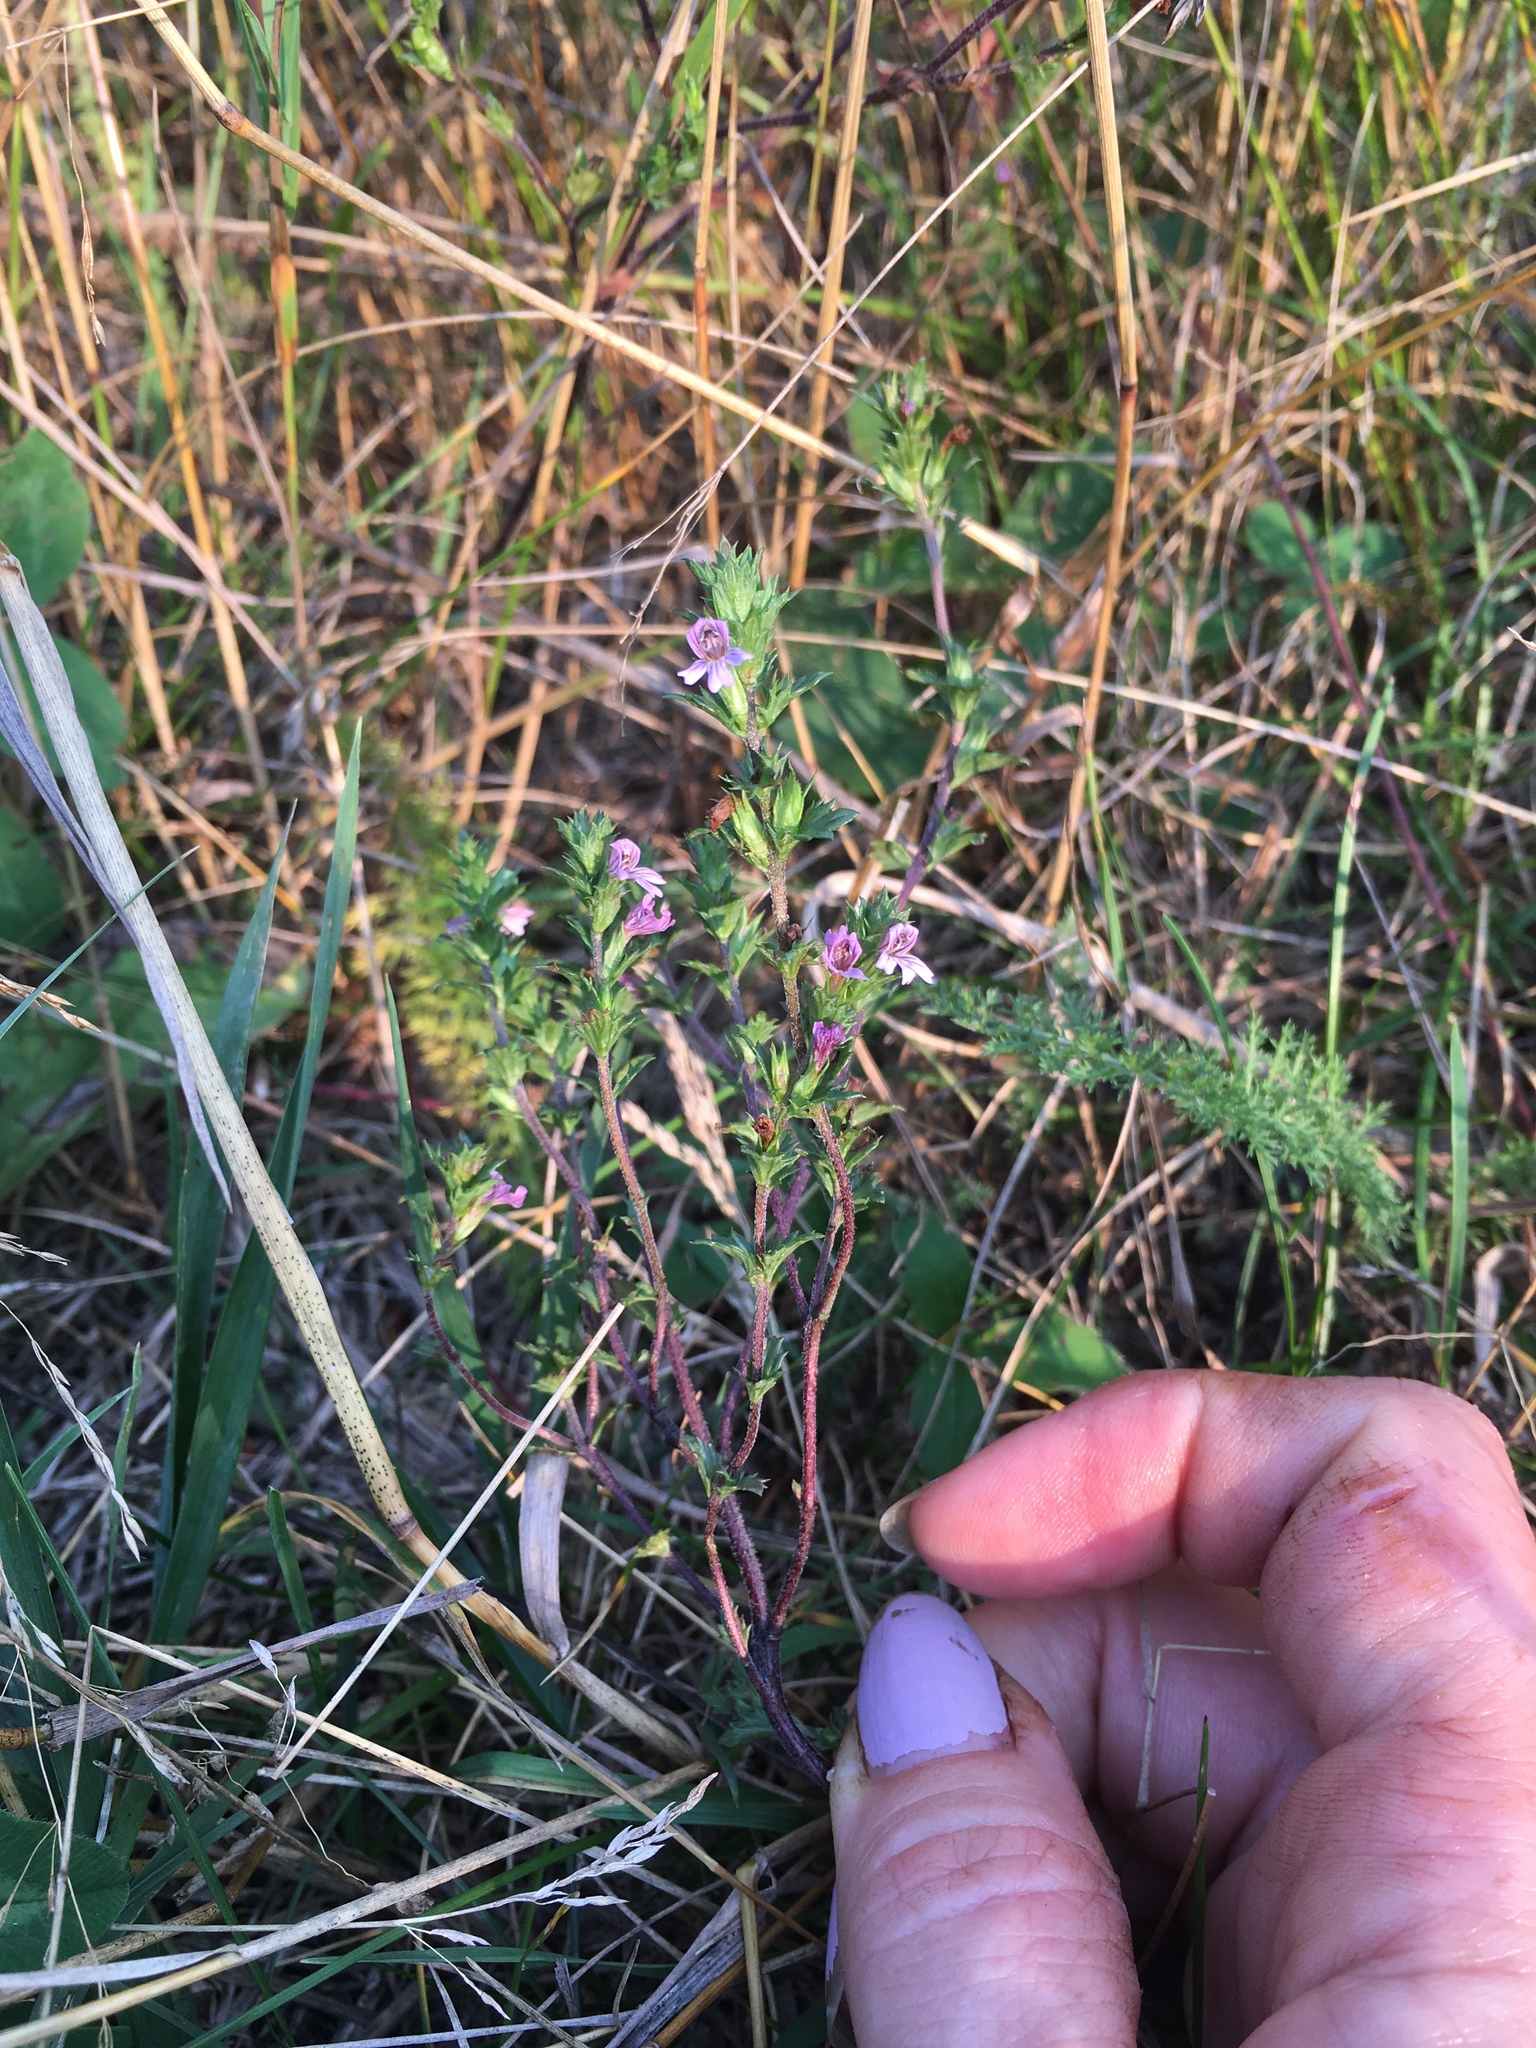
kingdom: Plantae
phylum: Tracheophyta
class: Magnoliopsida
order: Lamiales
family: Orobanchaceae
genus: Euphrasia
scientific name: Euphrasia nemorosa
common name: Common eyebright
